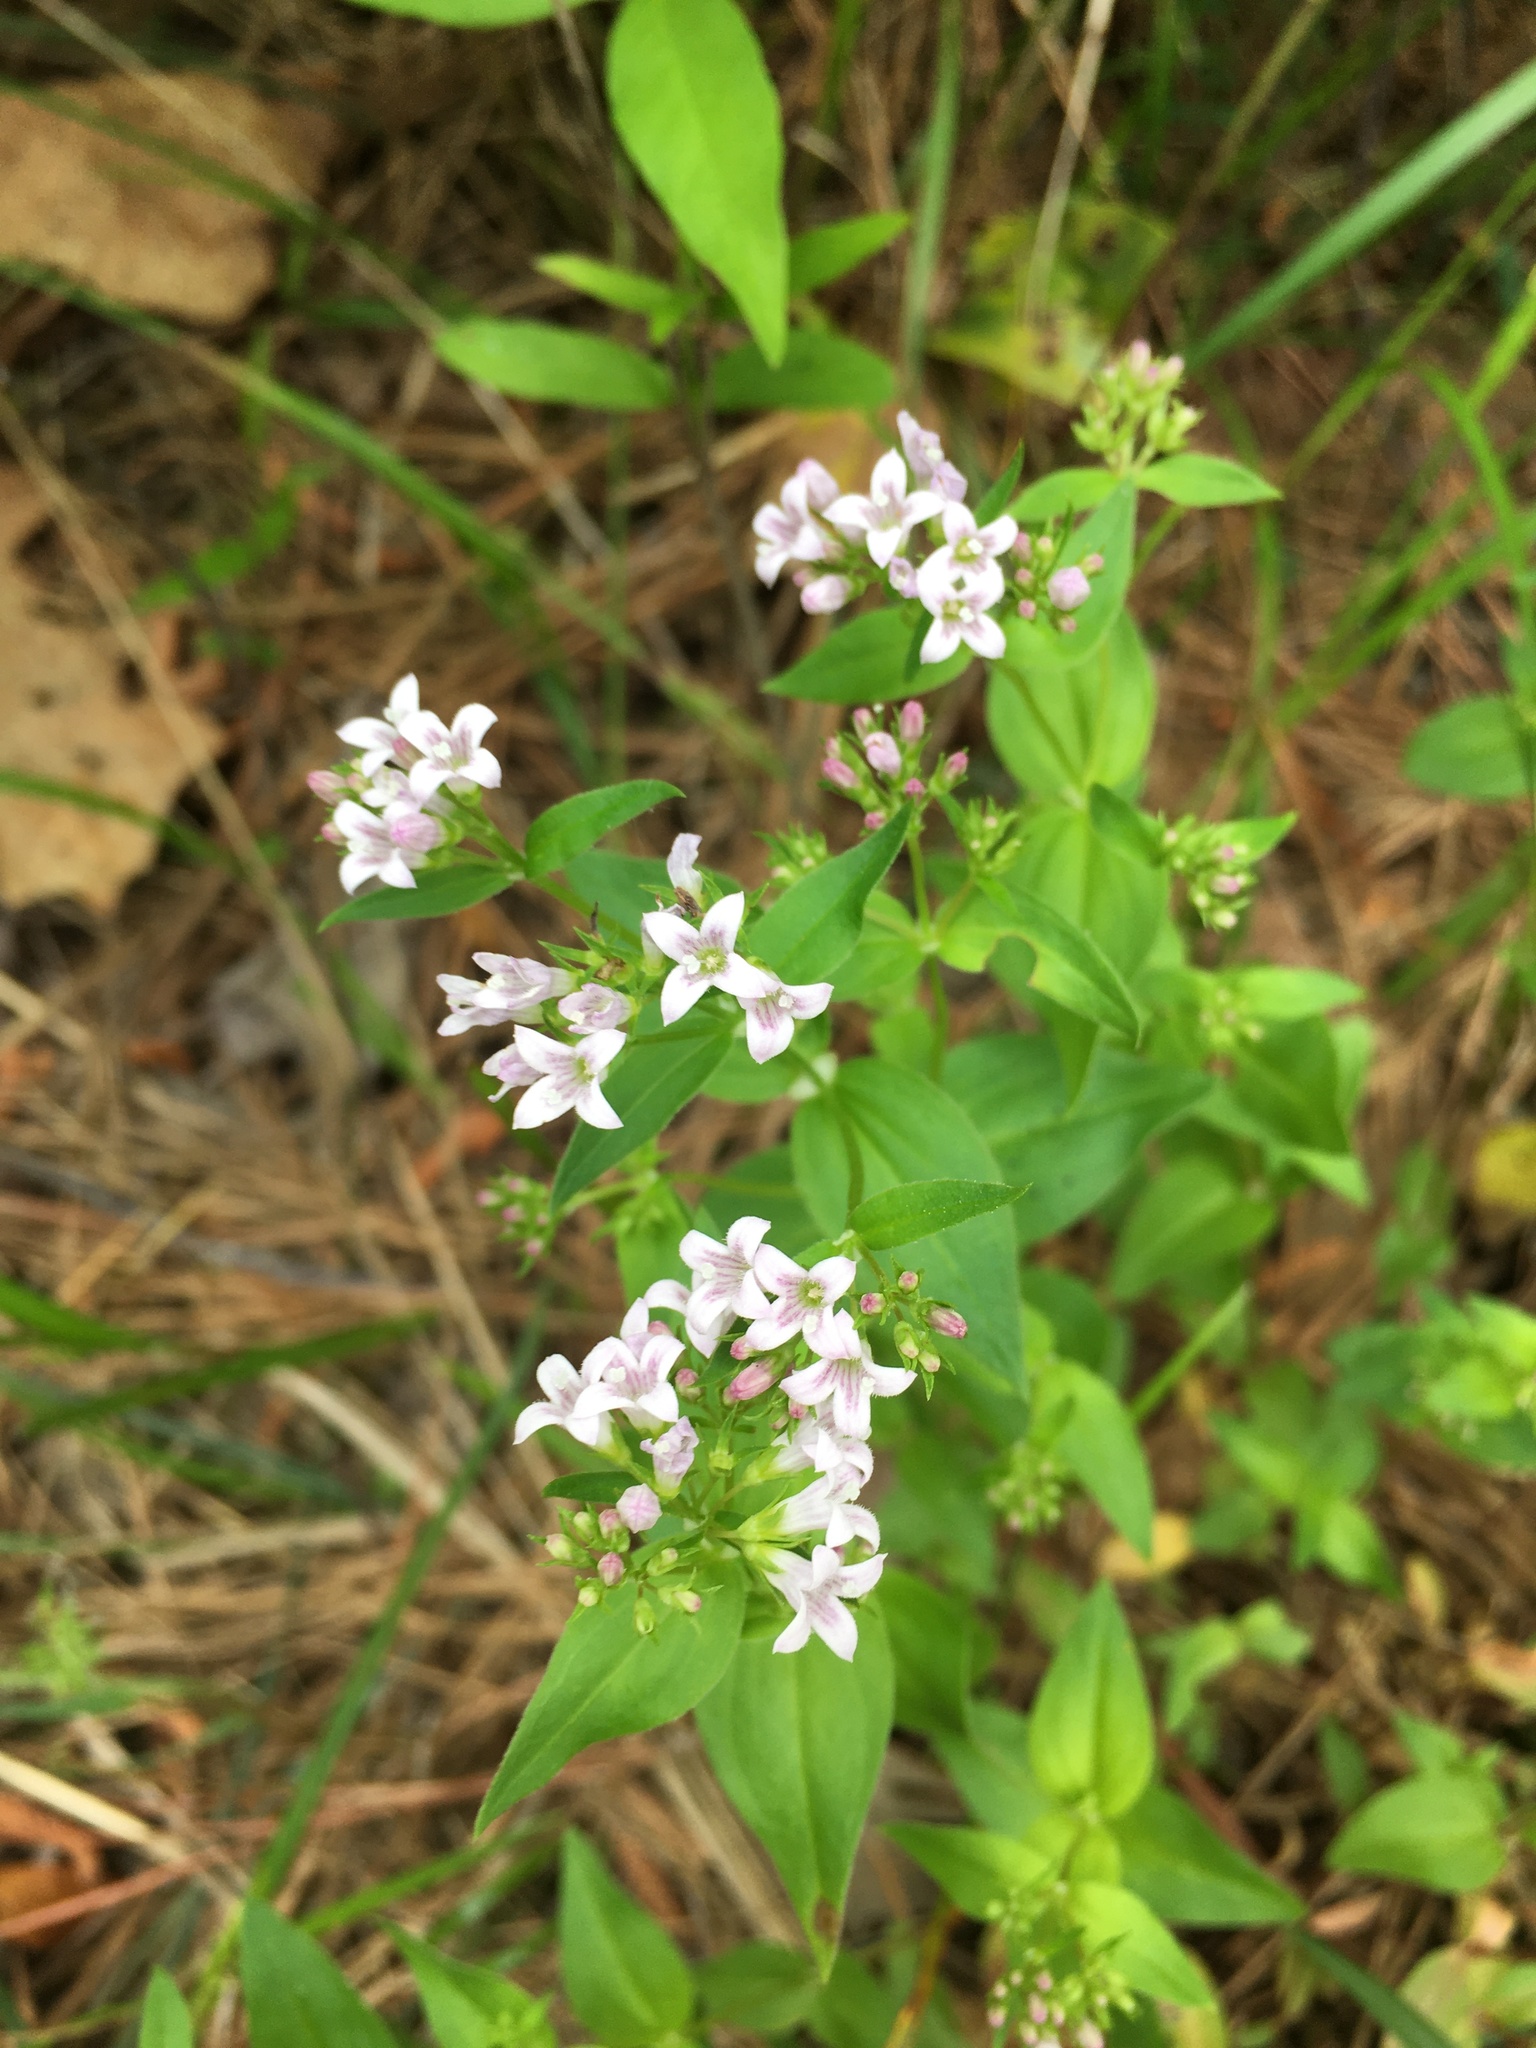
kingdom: Plantae
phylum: Tracheophyta
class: Magnoliopsida
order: Gentianales
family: Rubiaceae
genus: Houstonia
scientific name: Houstonia purpurea
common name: Summer bluet
